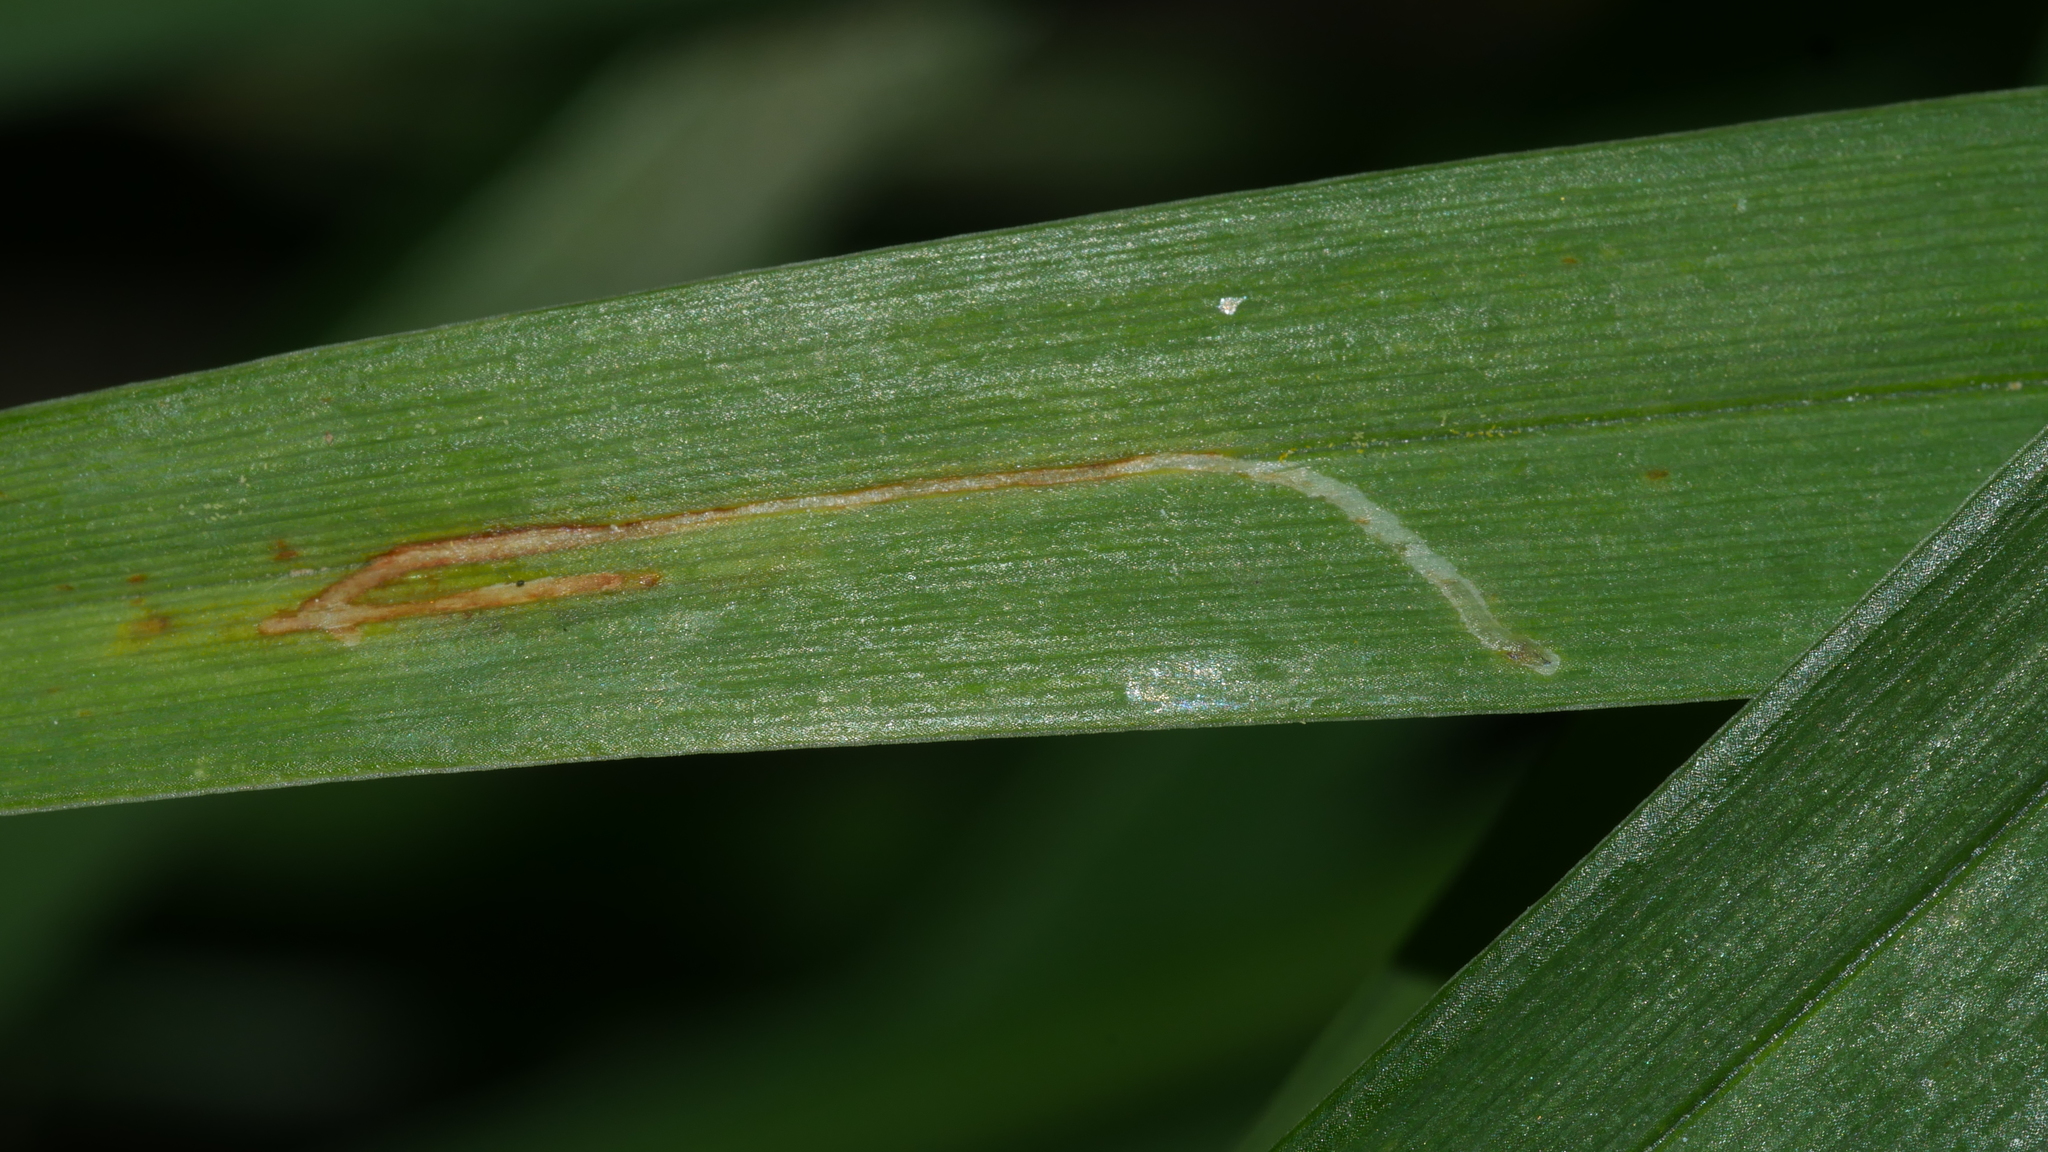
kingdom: Animalia
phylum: Arthropoda
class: Insecta
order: Diptera
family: Agromyzidae
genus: Ophiomyia
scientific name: Ophiomyia kwansonis
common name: Daylily leafminer
